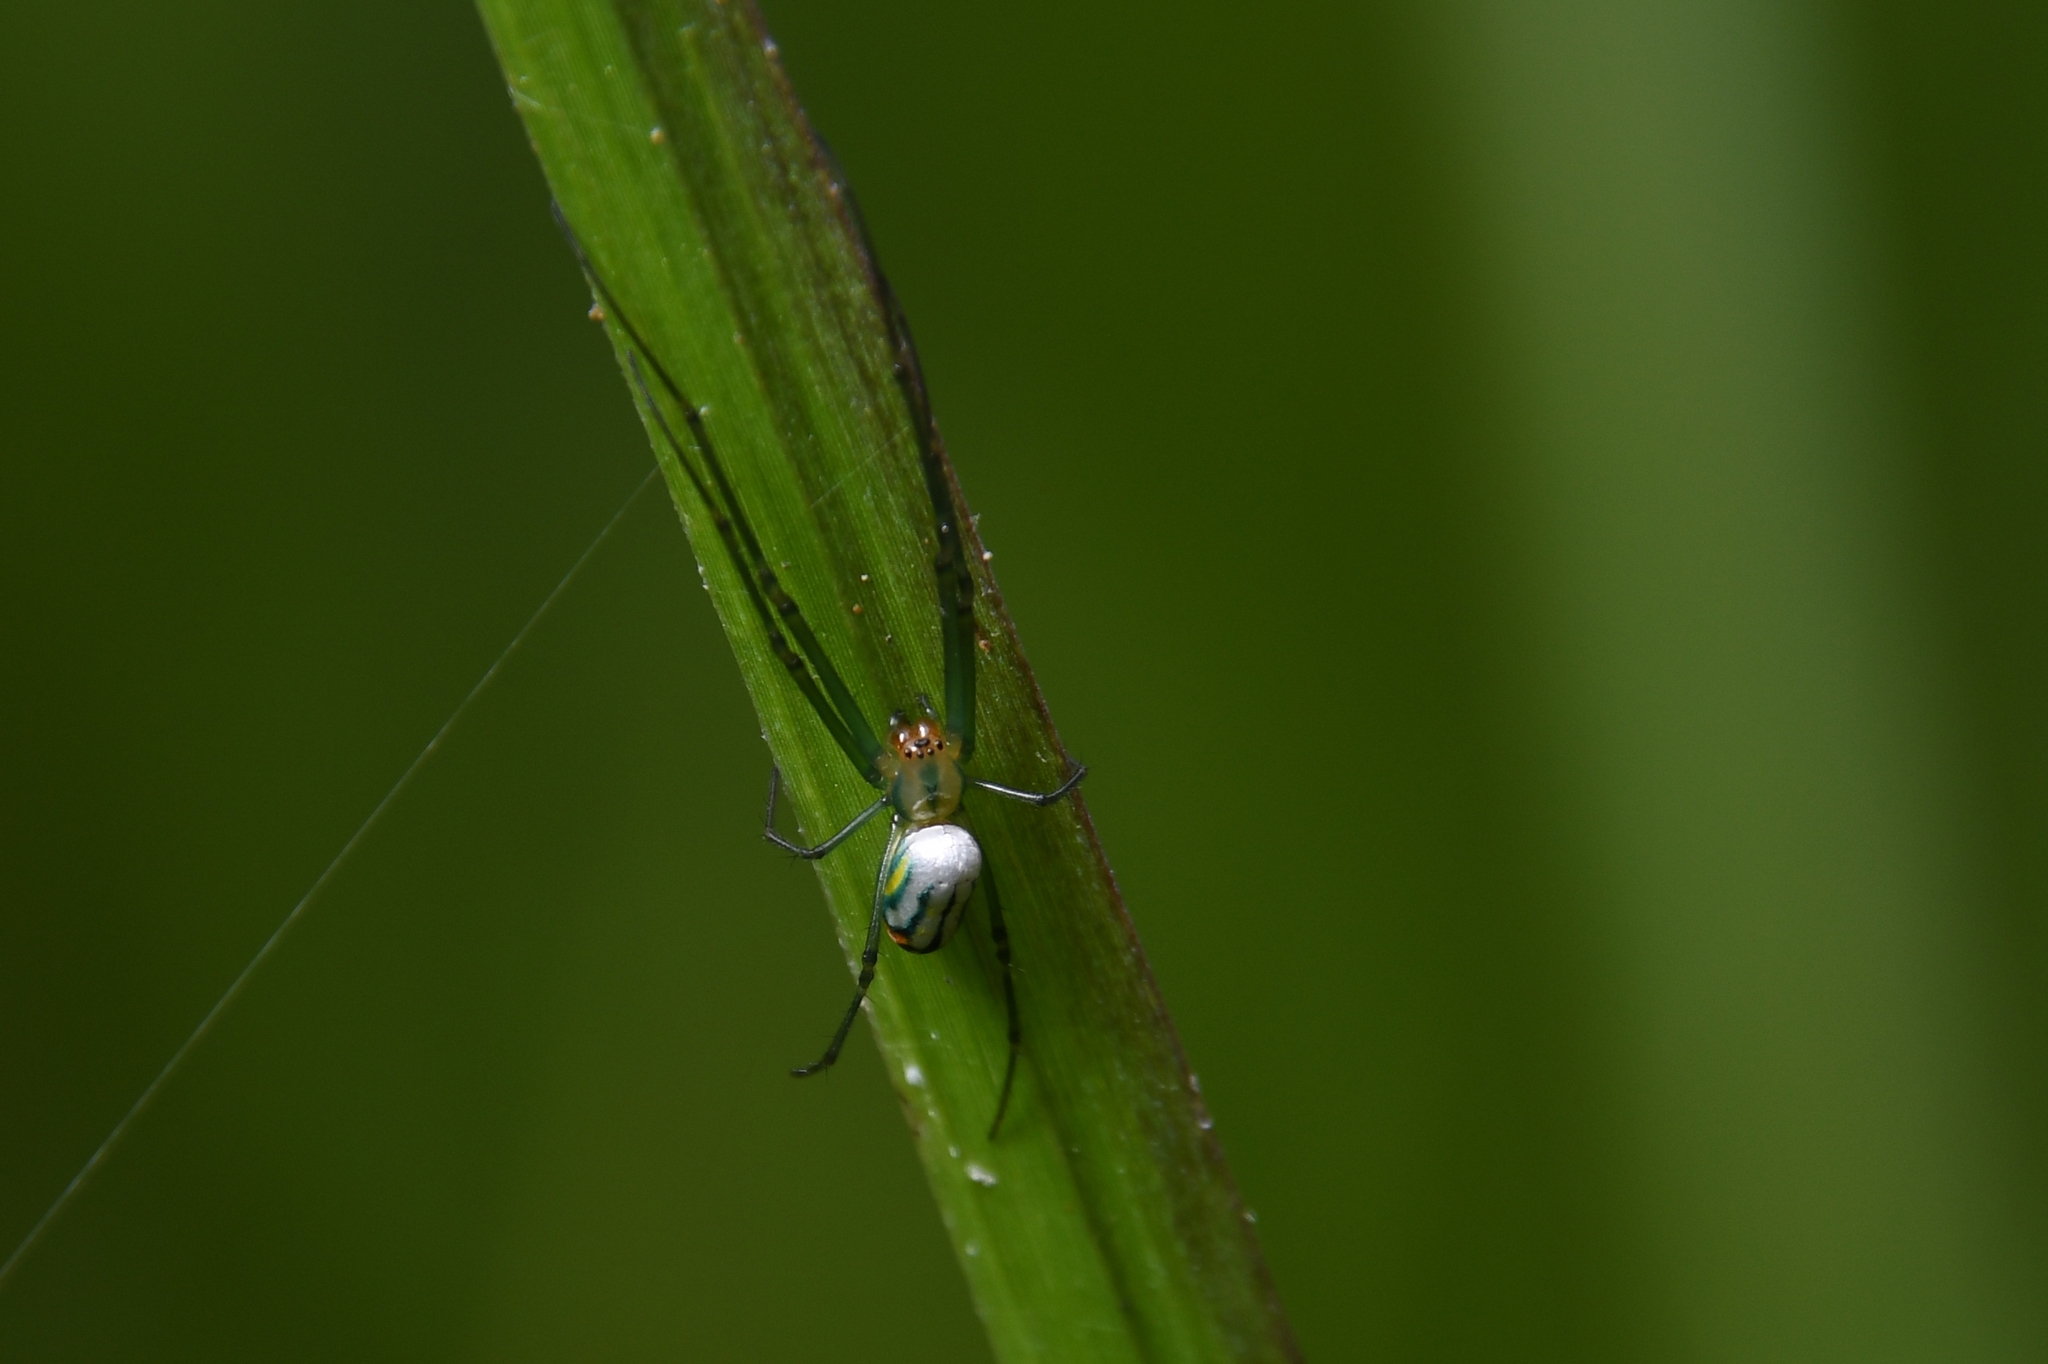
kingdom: Animalia
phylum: Arthropoda
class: Arachnida
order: Araneae
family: Tetragnathidae
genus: Leucauge
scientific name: Leucauge argyrobapta
